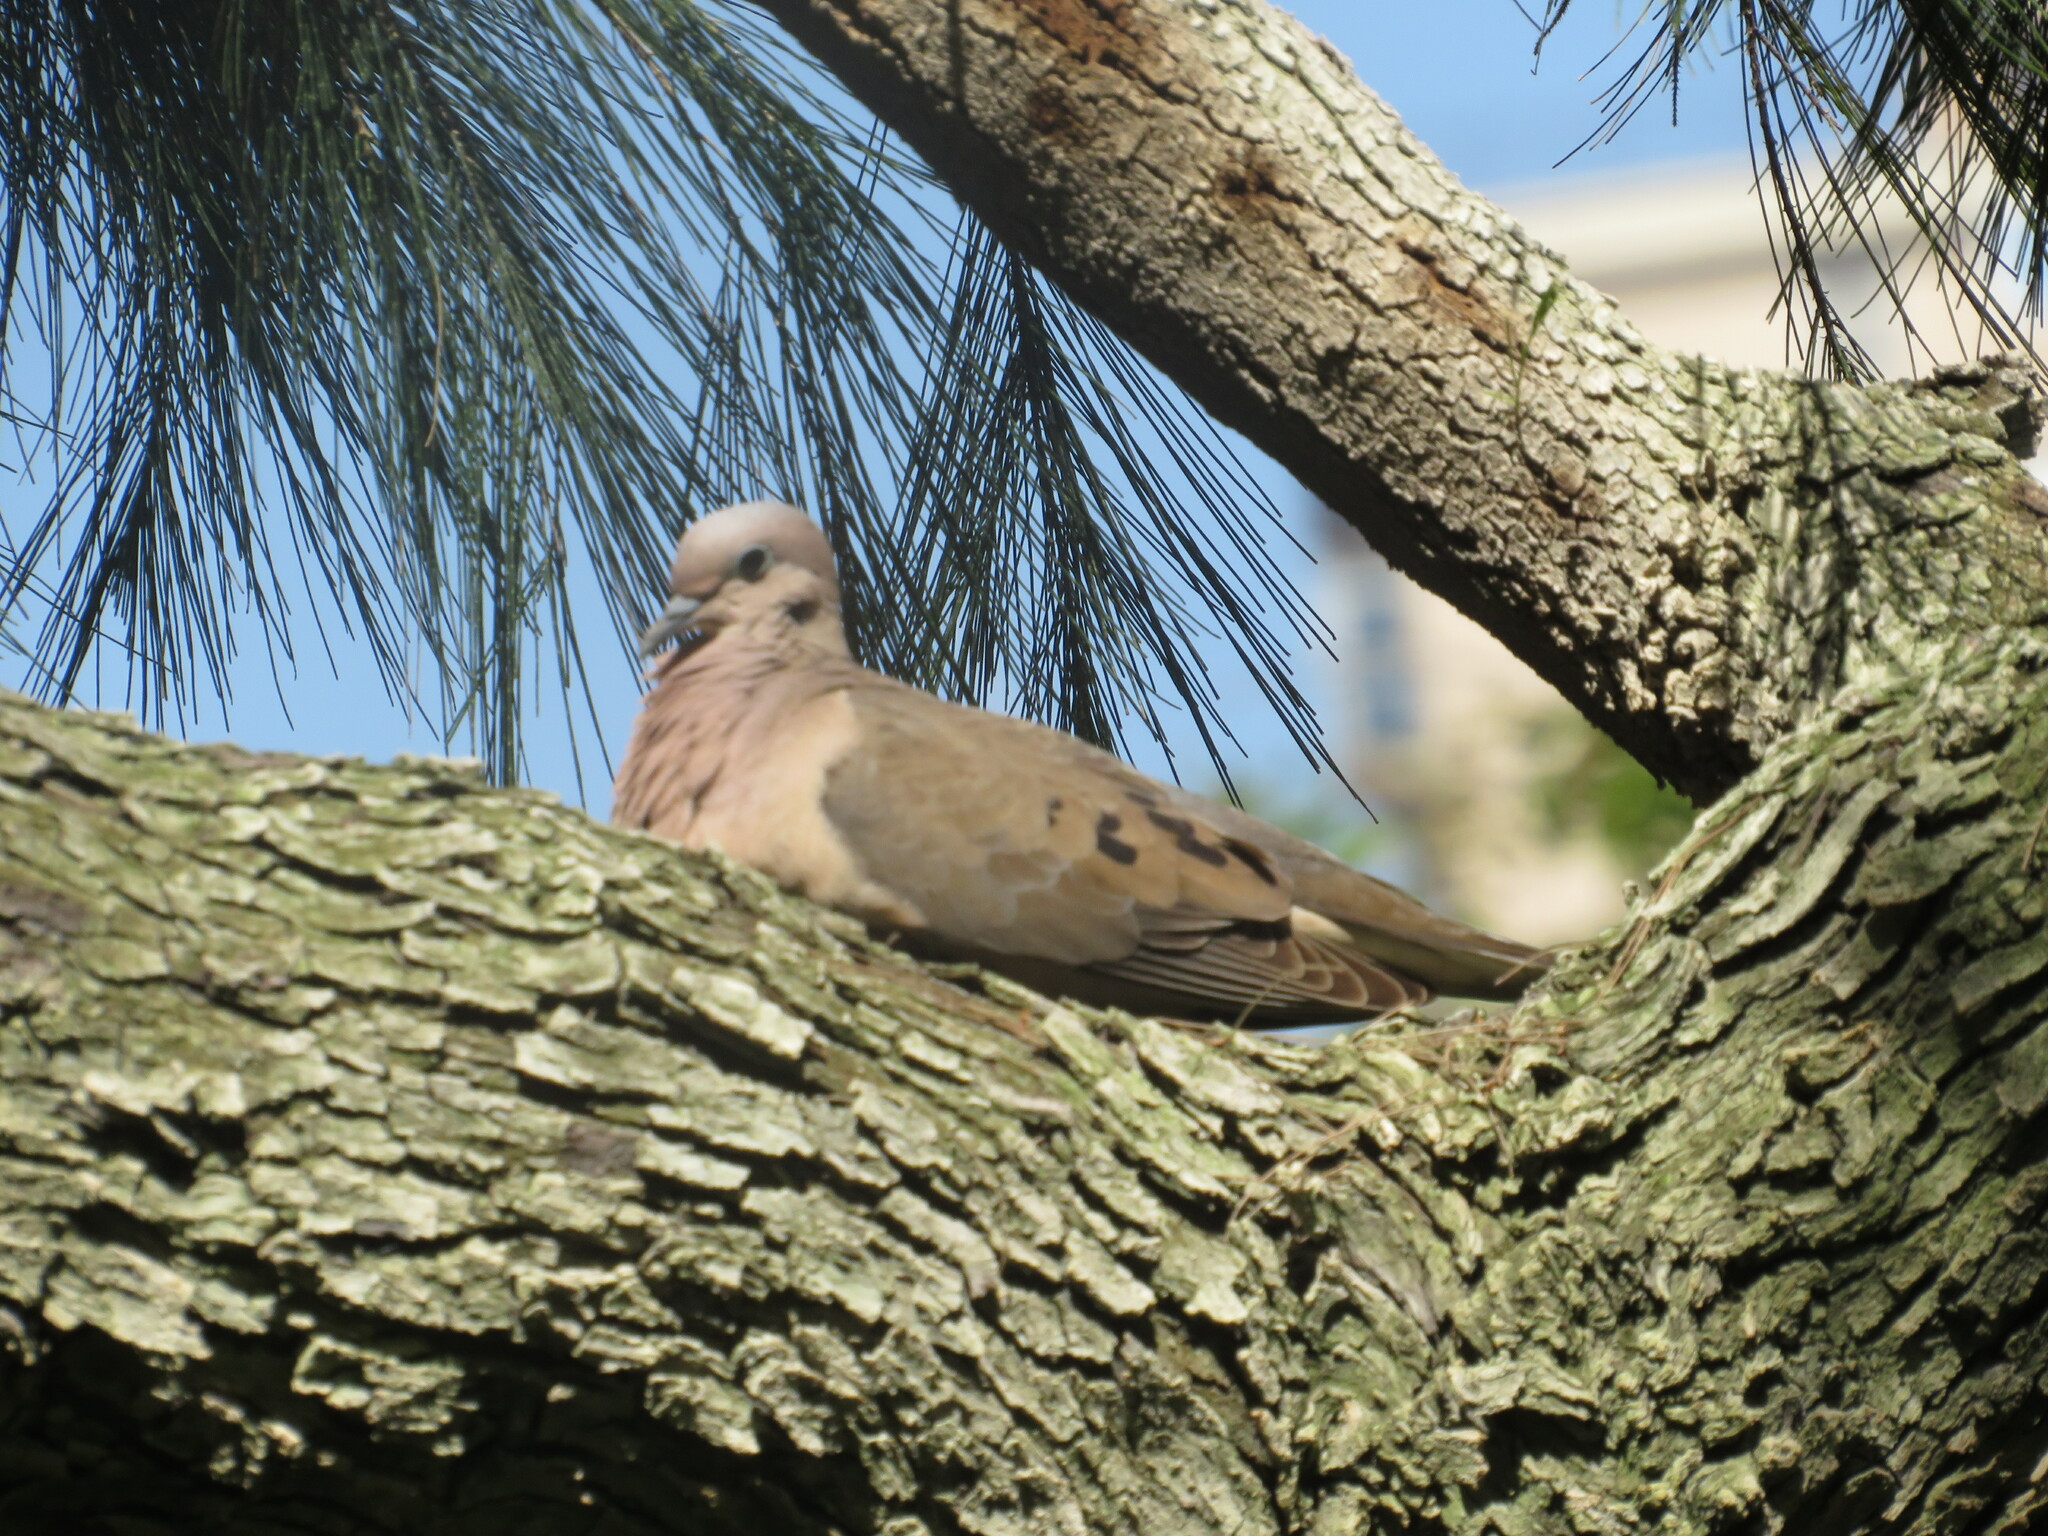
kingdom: Animalia
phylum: Chordata
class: Aves
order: Columbiformes
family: Columbidae
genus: Zenaida
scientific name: Zenaida auriculata
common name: Eared dove
